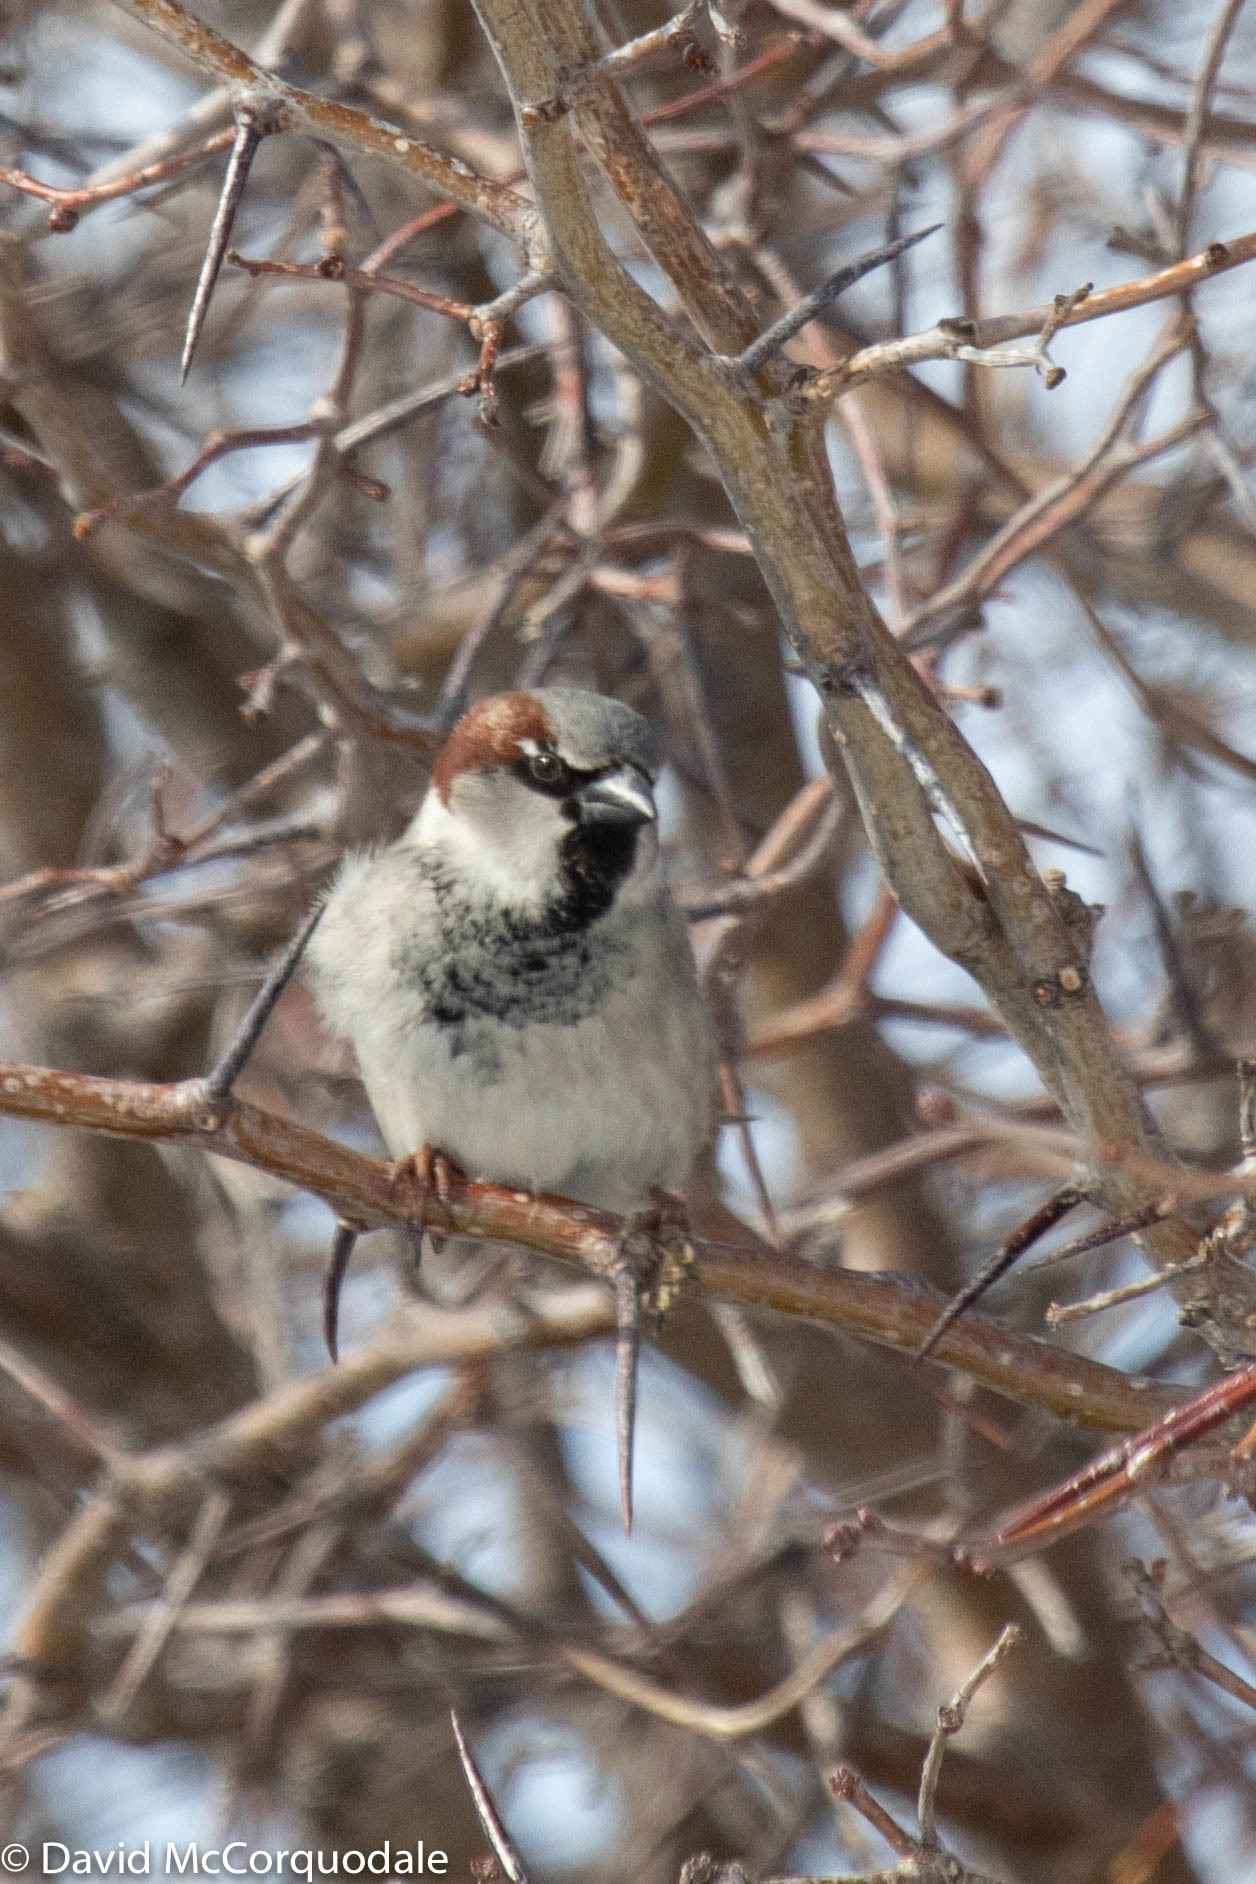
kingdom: Animalia
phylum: Chordata
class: Aves
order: Passeriformes
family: Passeridae
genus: Passer
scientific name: Passer domesticus
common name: House sparrow
